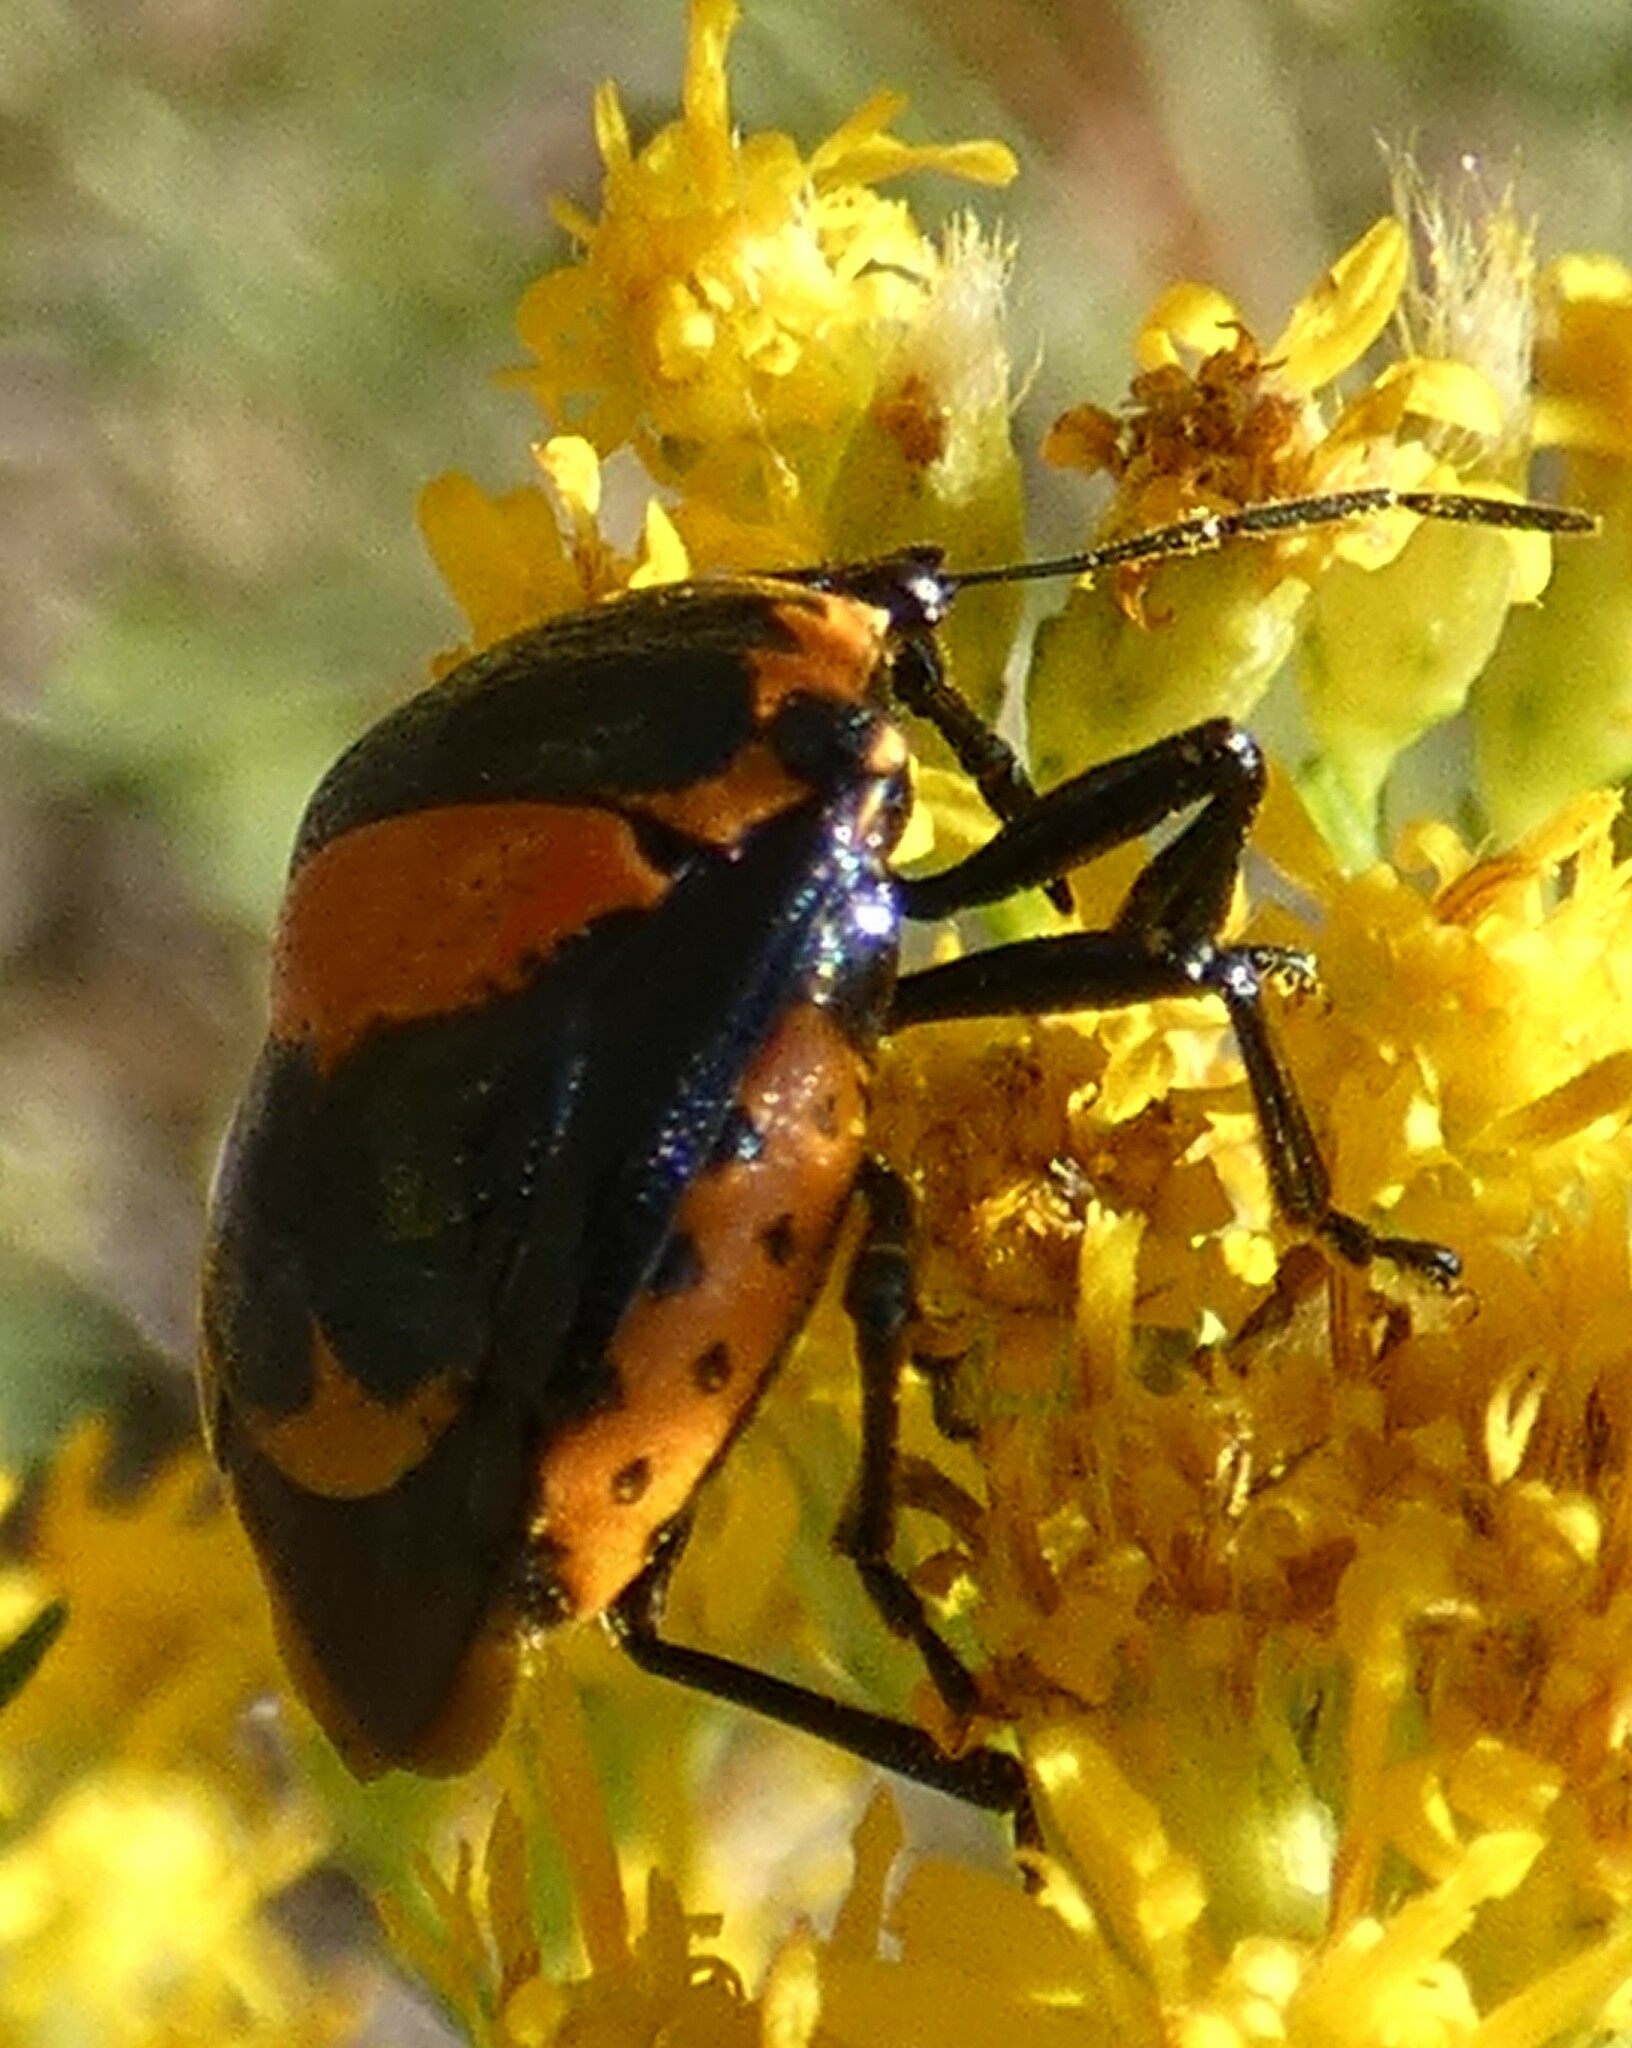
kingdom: Animalia
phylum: Arthropoda
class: Insecta
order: Hemiptera
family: Pentatomidae
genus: Stiretrus
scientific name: Stiretrus anchorago
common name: Anchor stink bug
